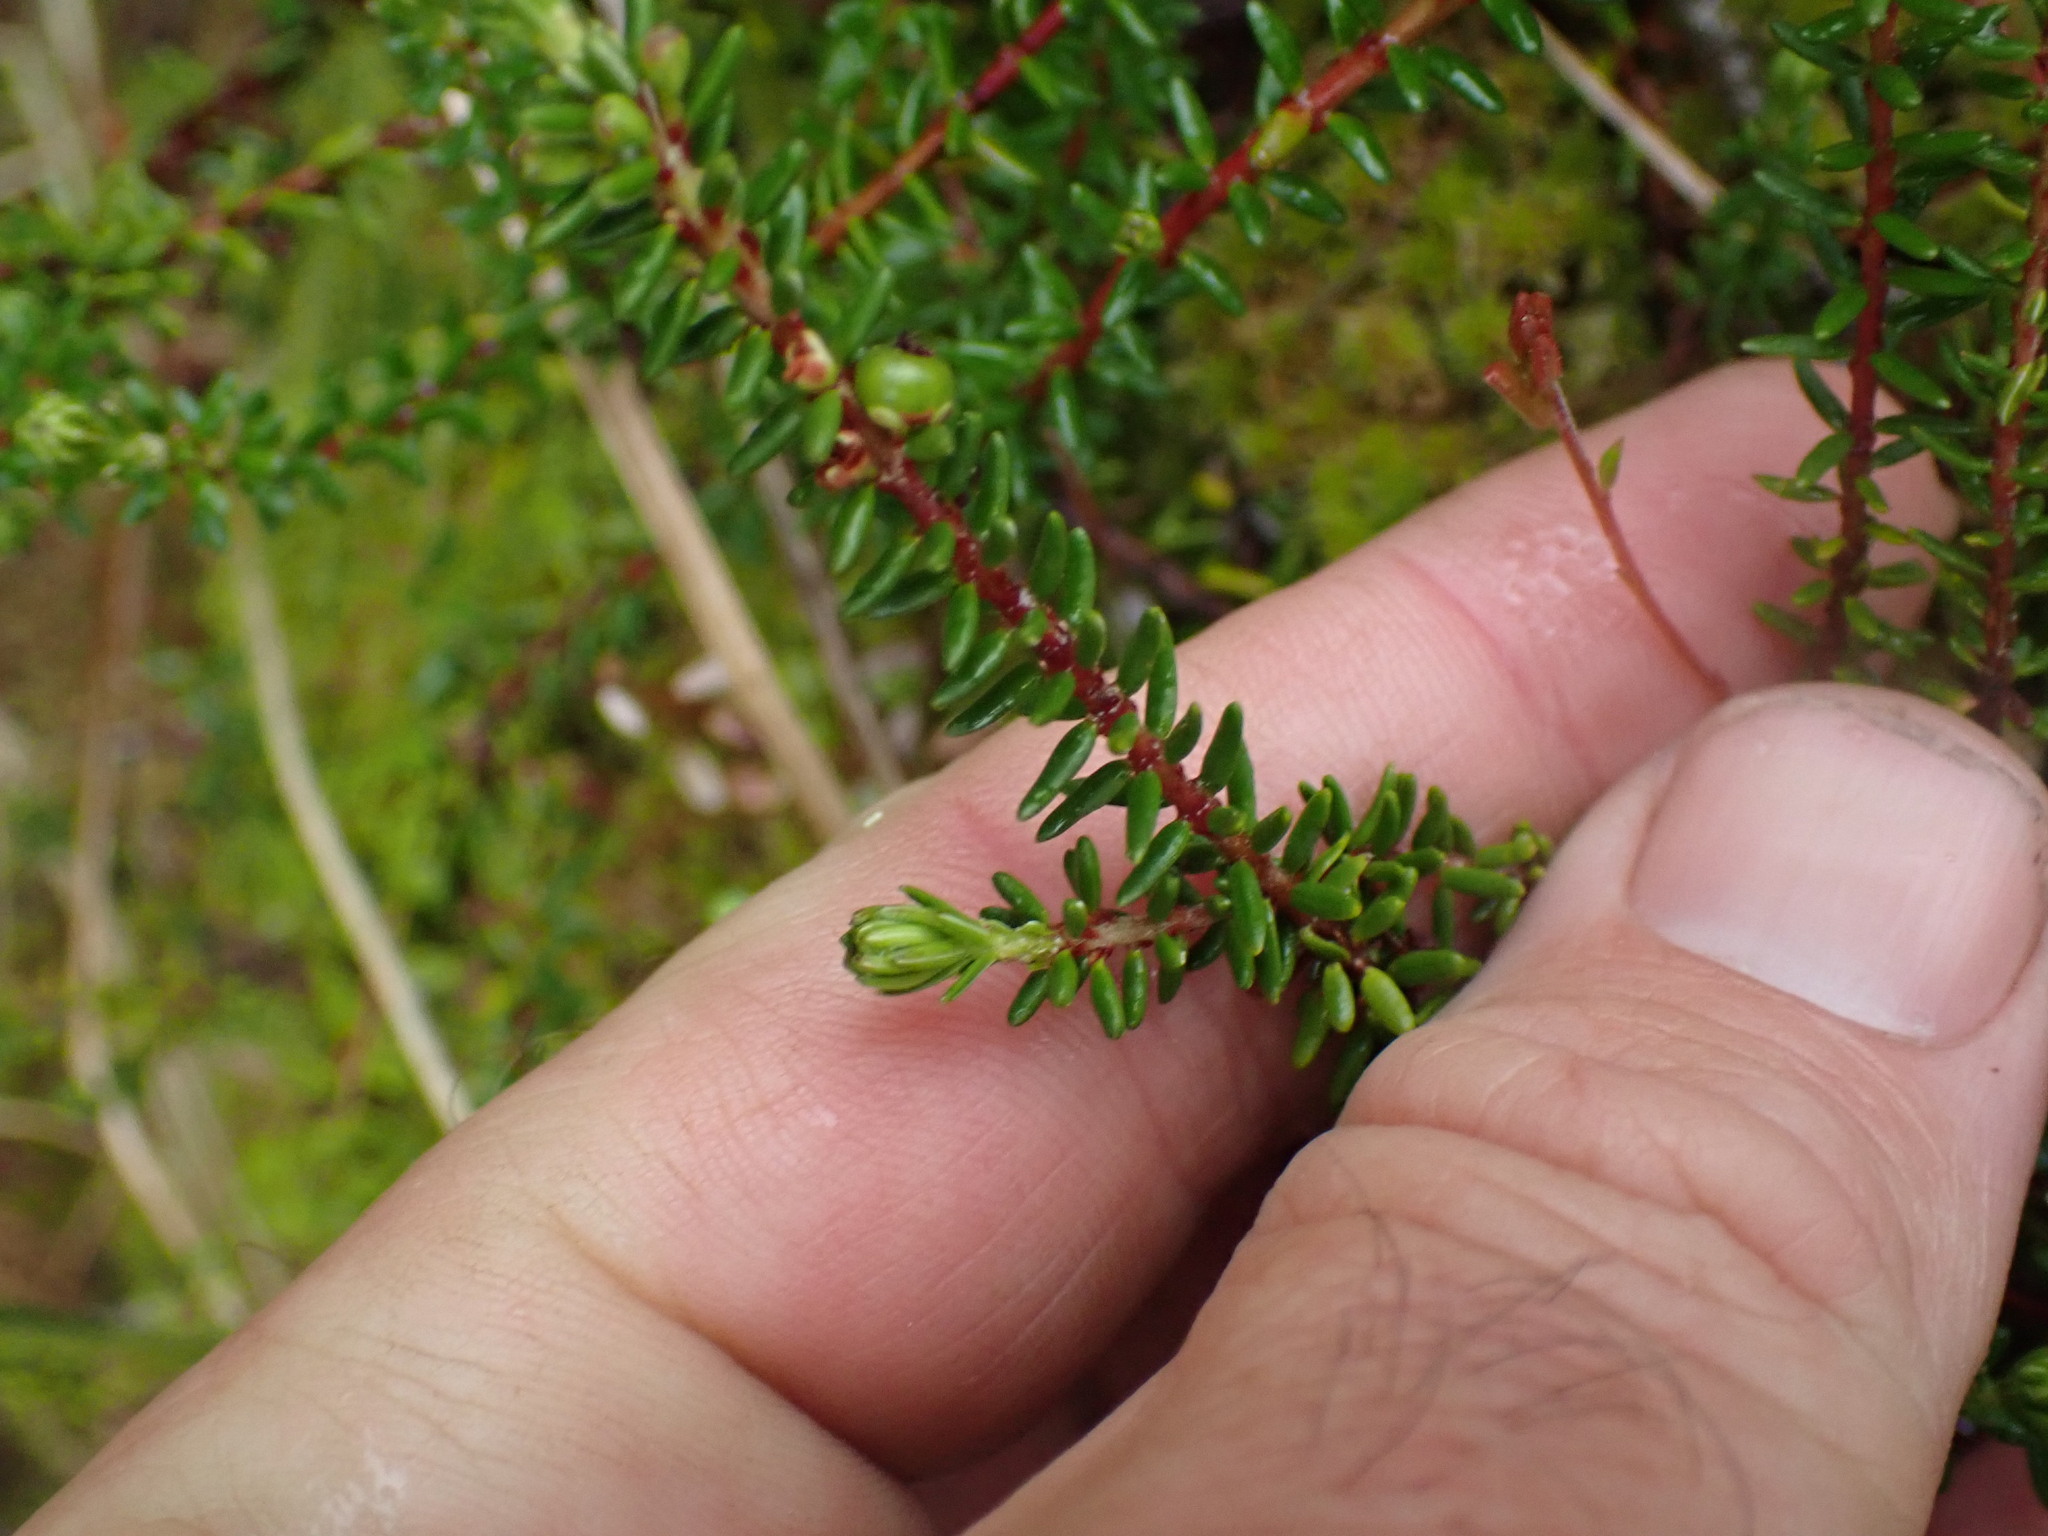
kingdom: Plantae
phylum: Tracheophyta
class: Magnoliopsida
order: Ericales
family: Ericaceae
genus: Empetrum
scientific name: Empetrum nigrum
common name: Black crowberry
